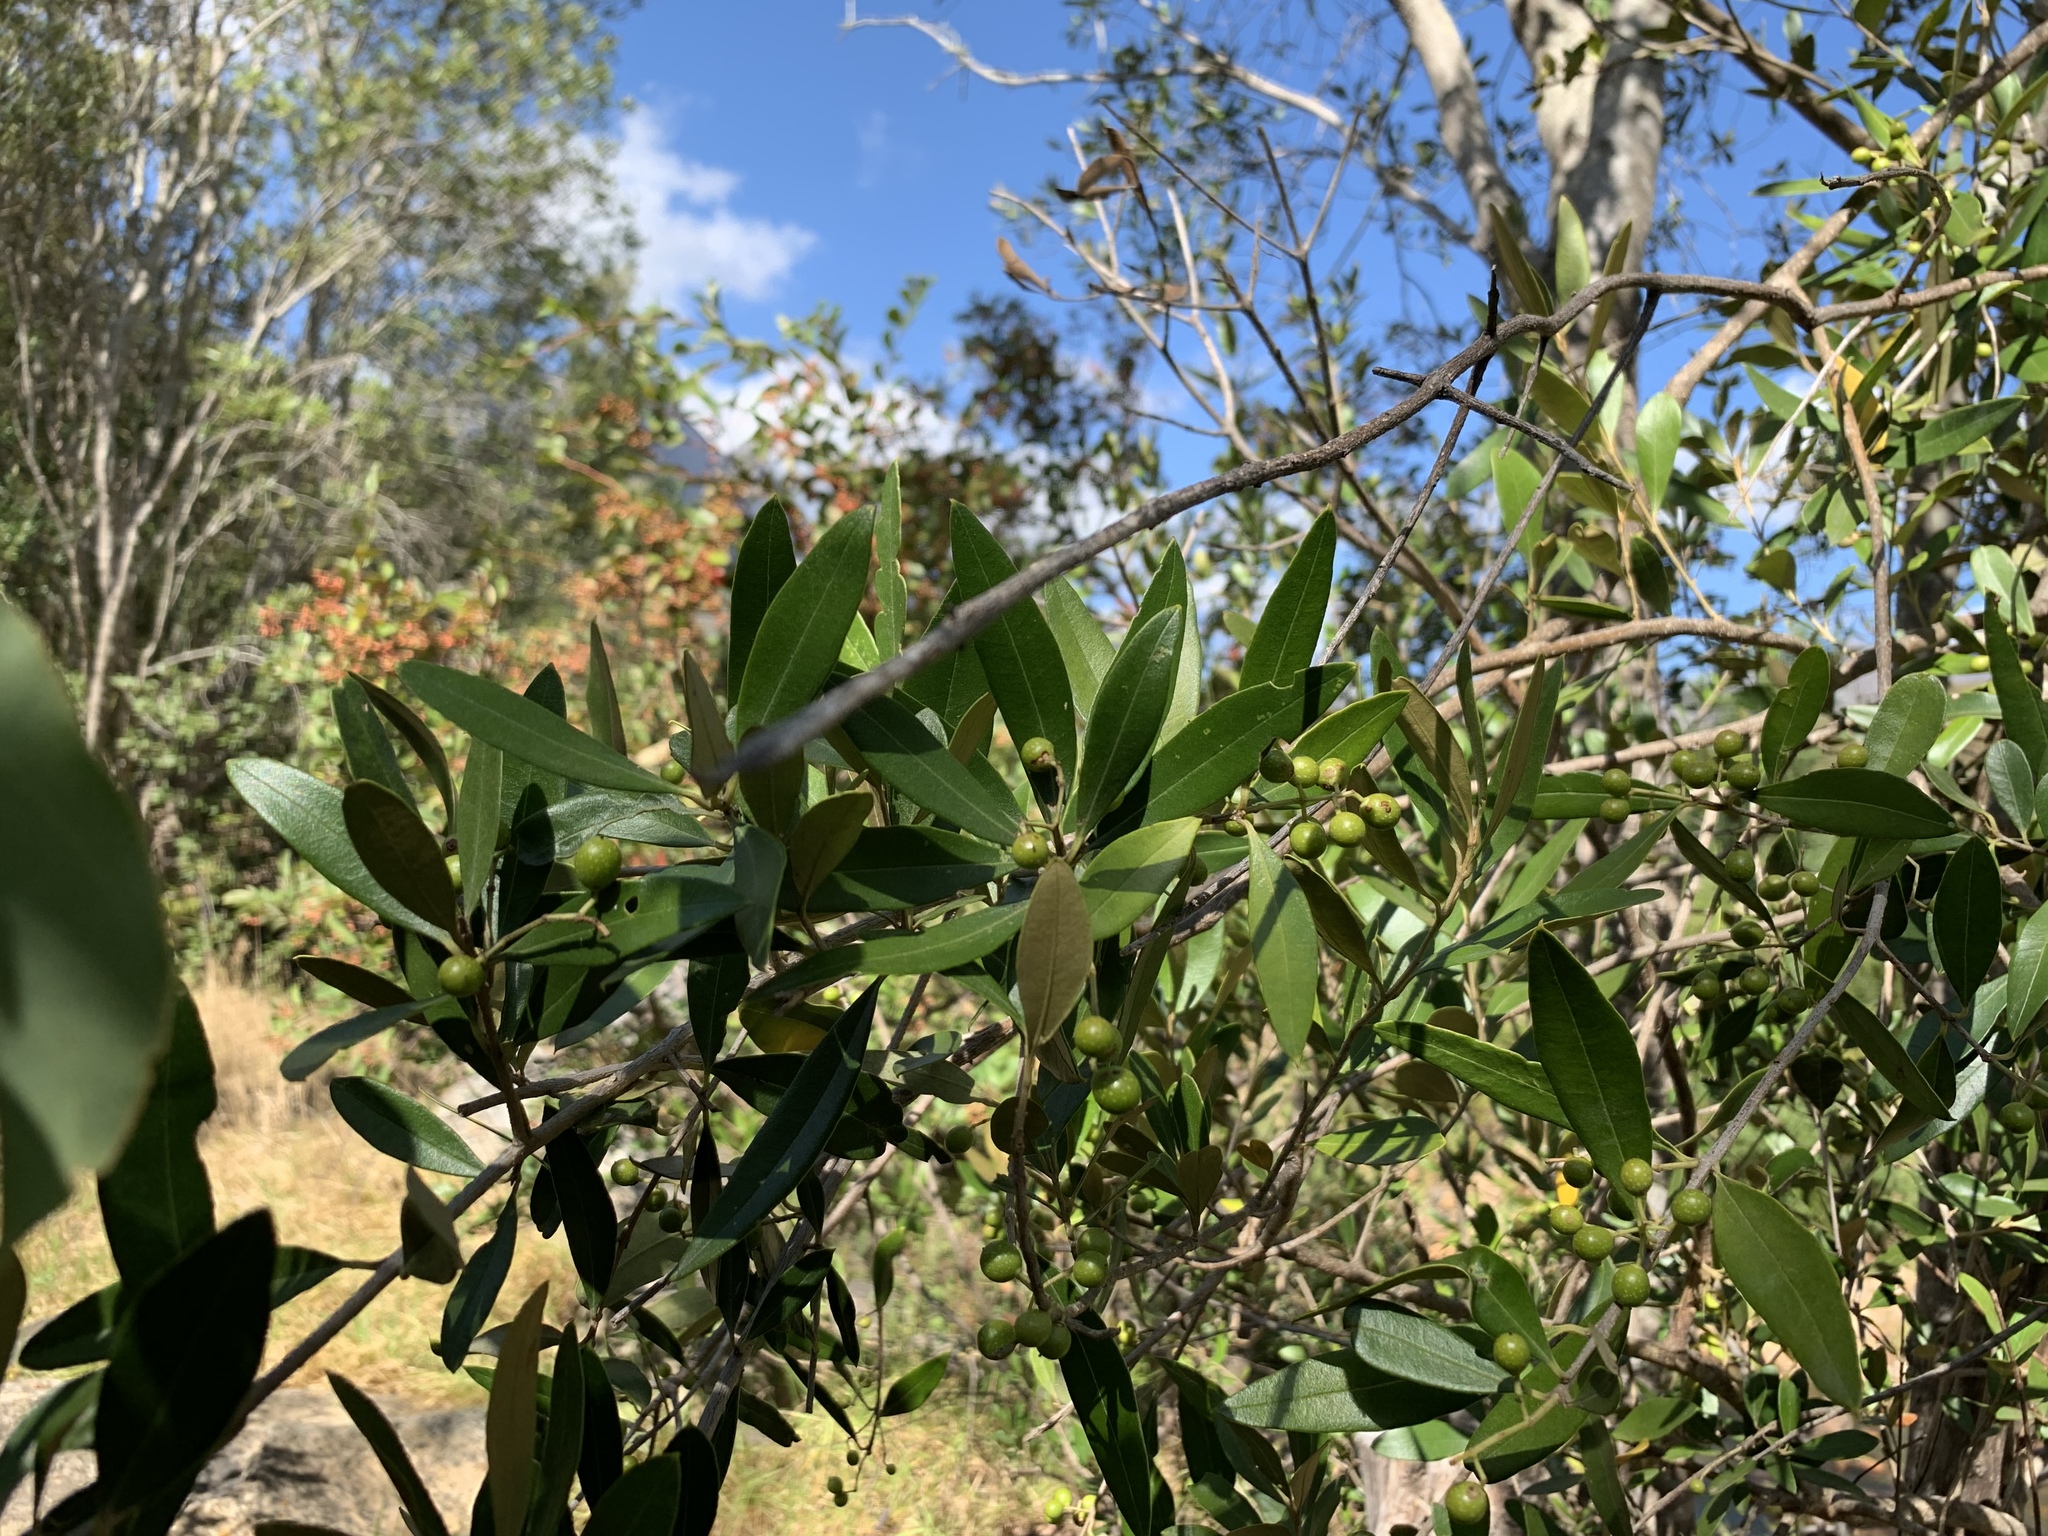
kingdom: Plantae
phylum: Tracheophyta
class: Magnoliopsida
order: Lamiales
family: Oleaceae
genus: Olea
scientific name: Olea europaea
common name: Olive
